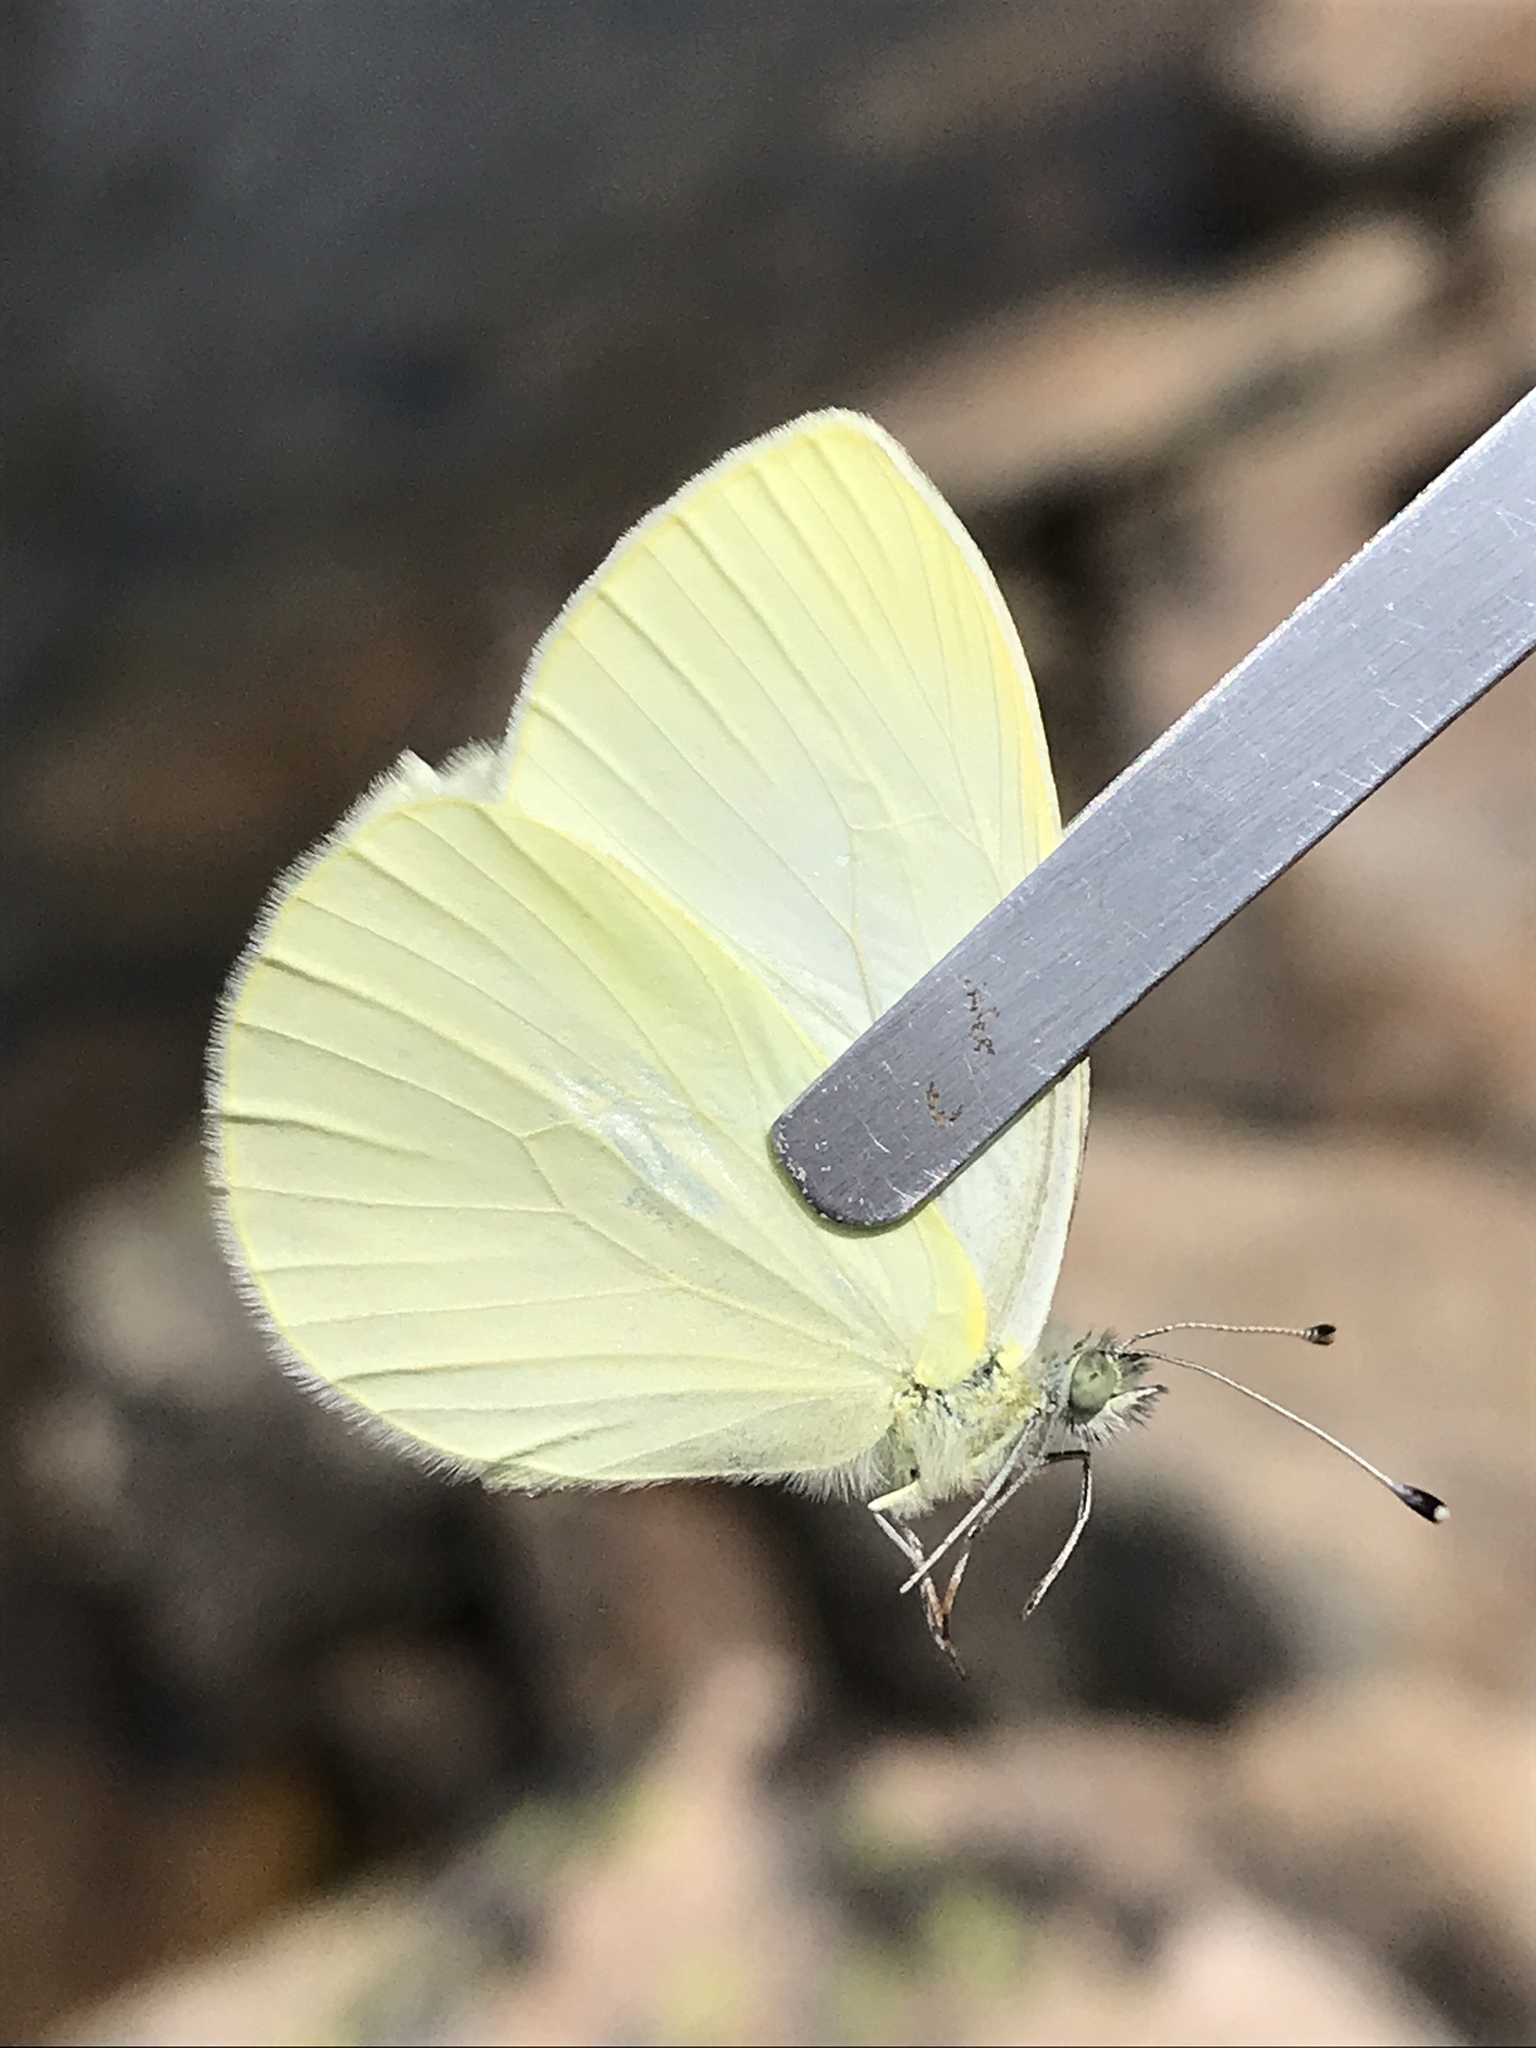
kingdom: Animalia
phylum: Arthropoda
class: Insecta
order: Lepidoptera
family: Pieridae
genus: Pieris
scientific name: Pieris marginalis
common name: Margined white
